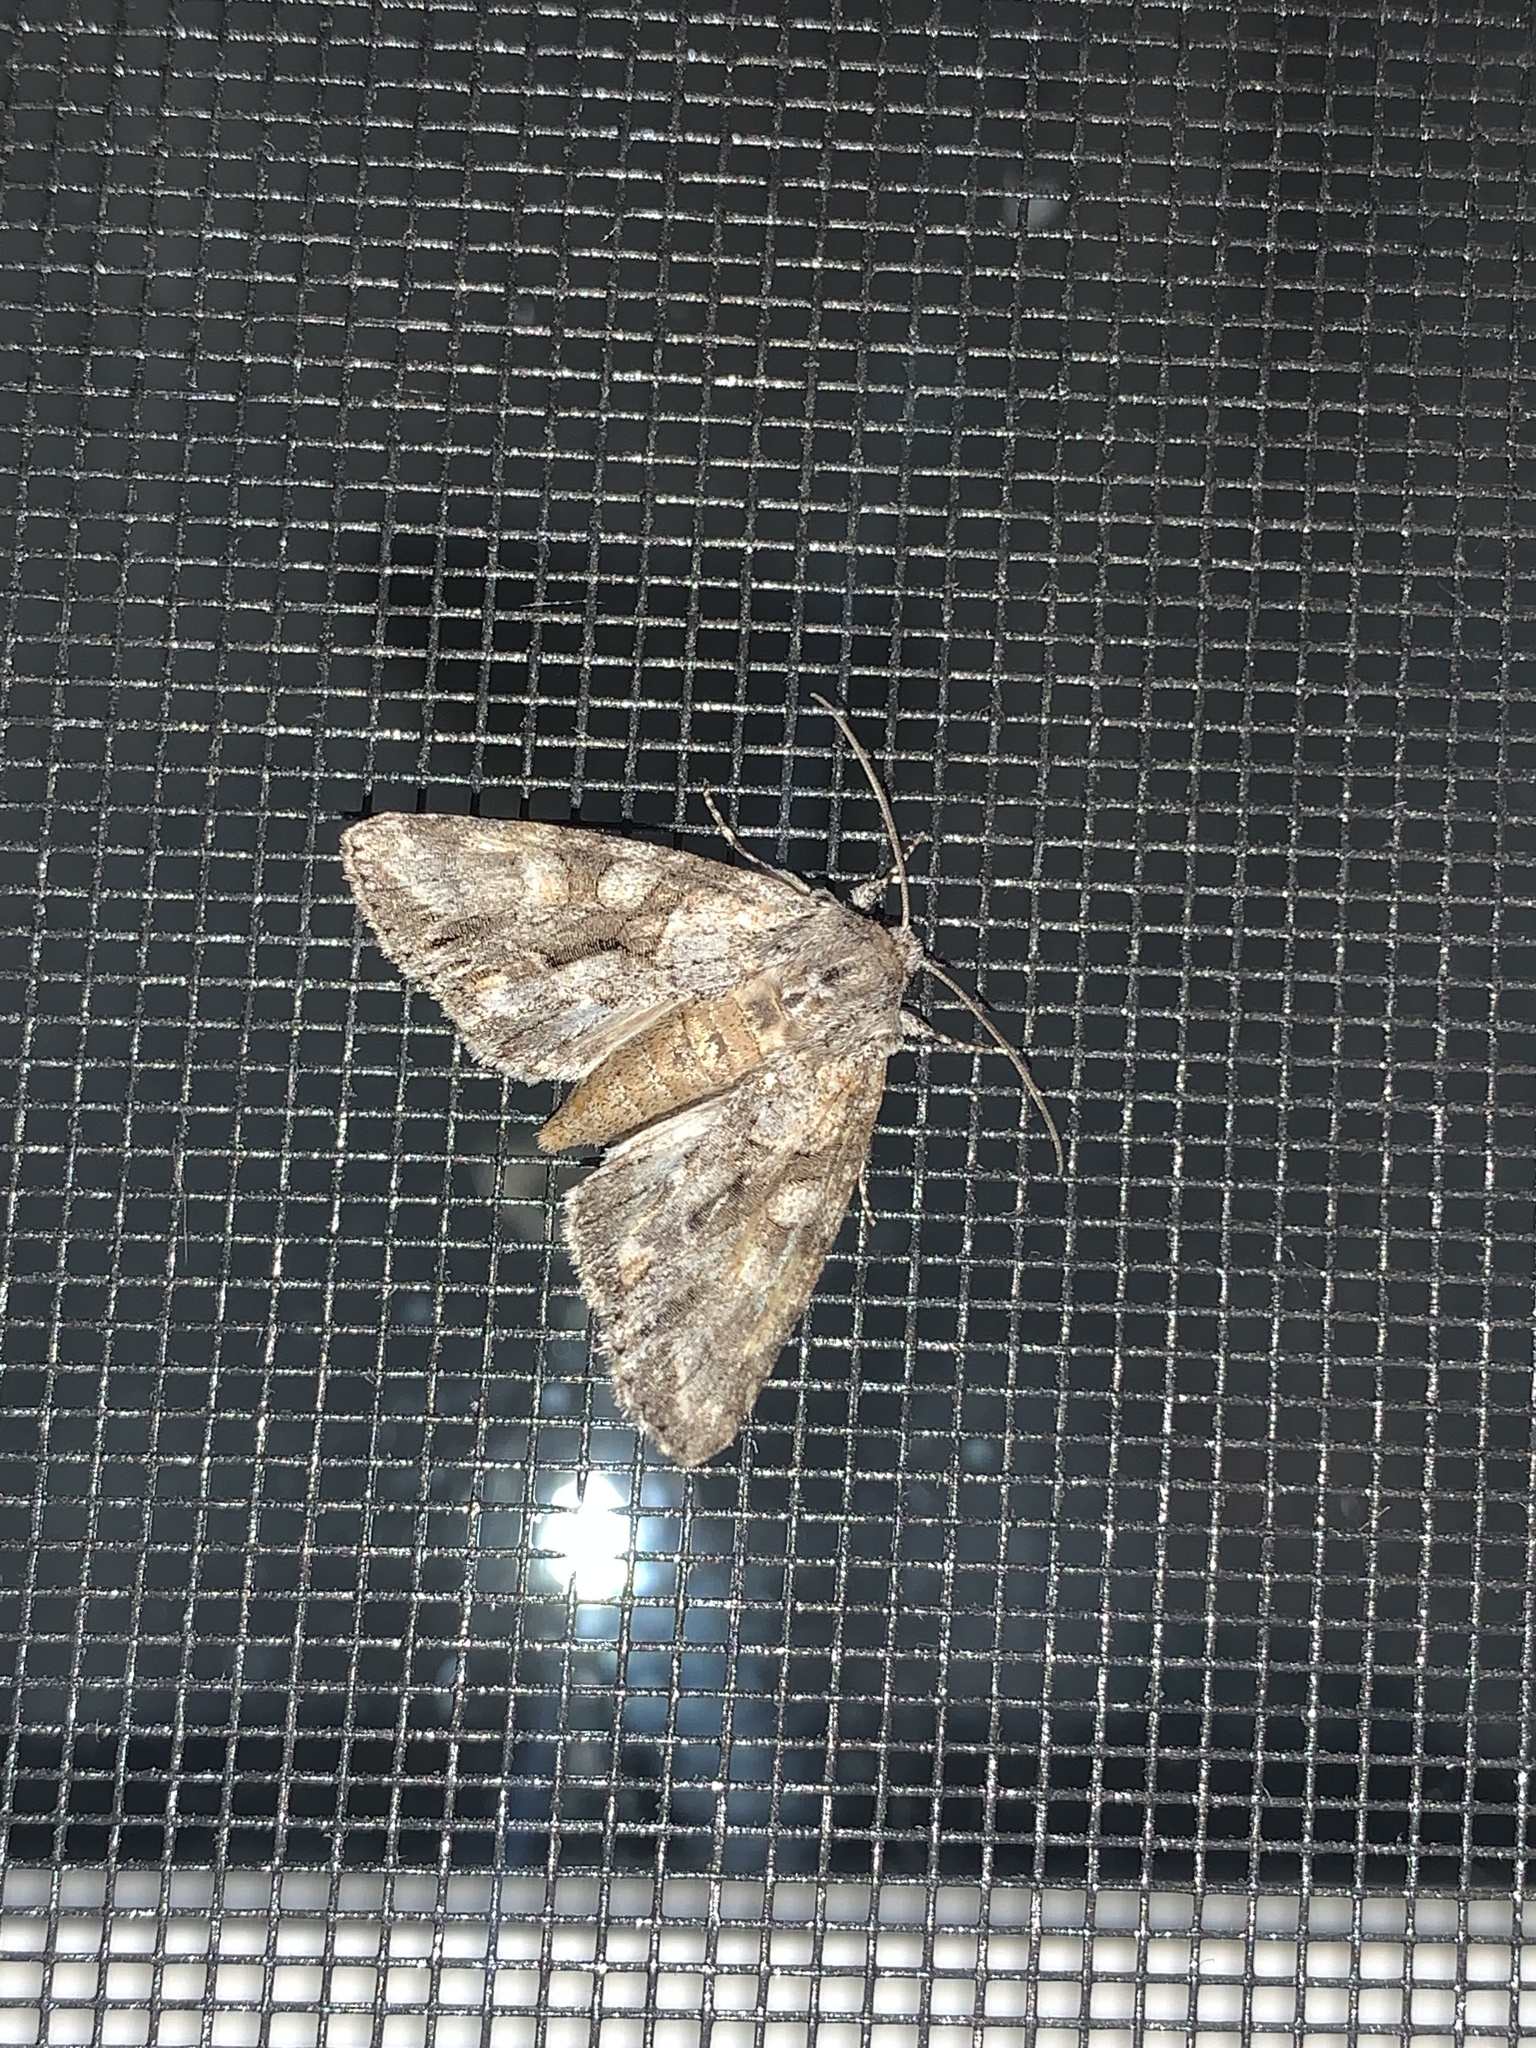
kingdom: Animalia
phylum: Arthropoda
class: Insecta
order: Lepidoptera
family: Noctuidae
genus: Achatia
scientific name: Achatia distincta
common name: Distinct quaker
